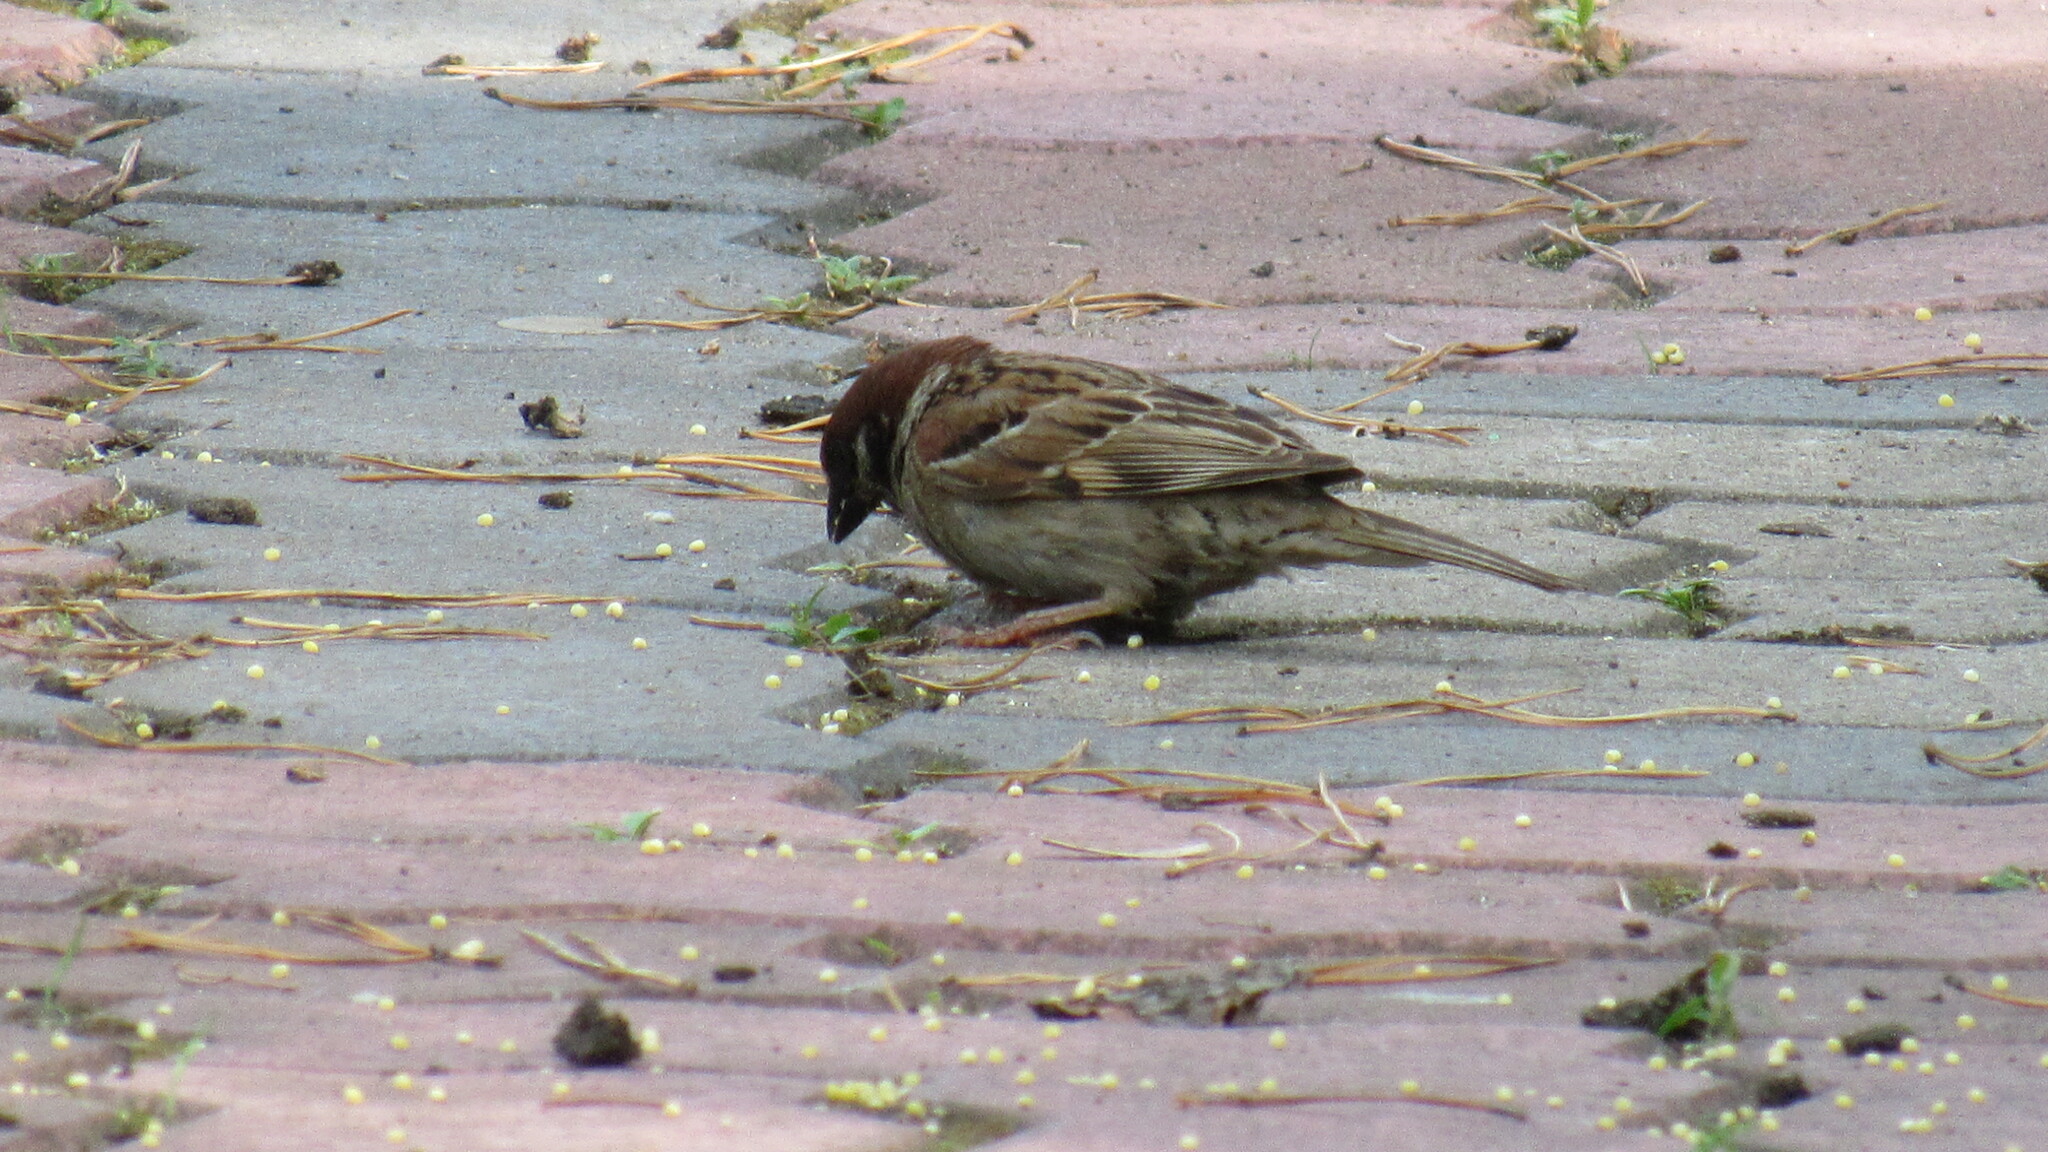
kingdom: Animalia
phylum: Chordata
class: Aves
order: Passeriformes
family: Passeridae
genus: Passer
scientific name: Passer domesticus
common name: House sparrow
